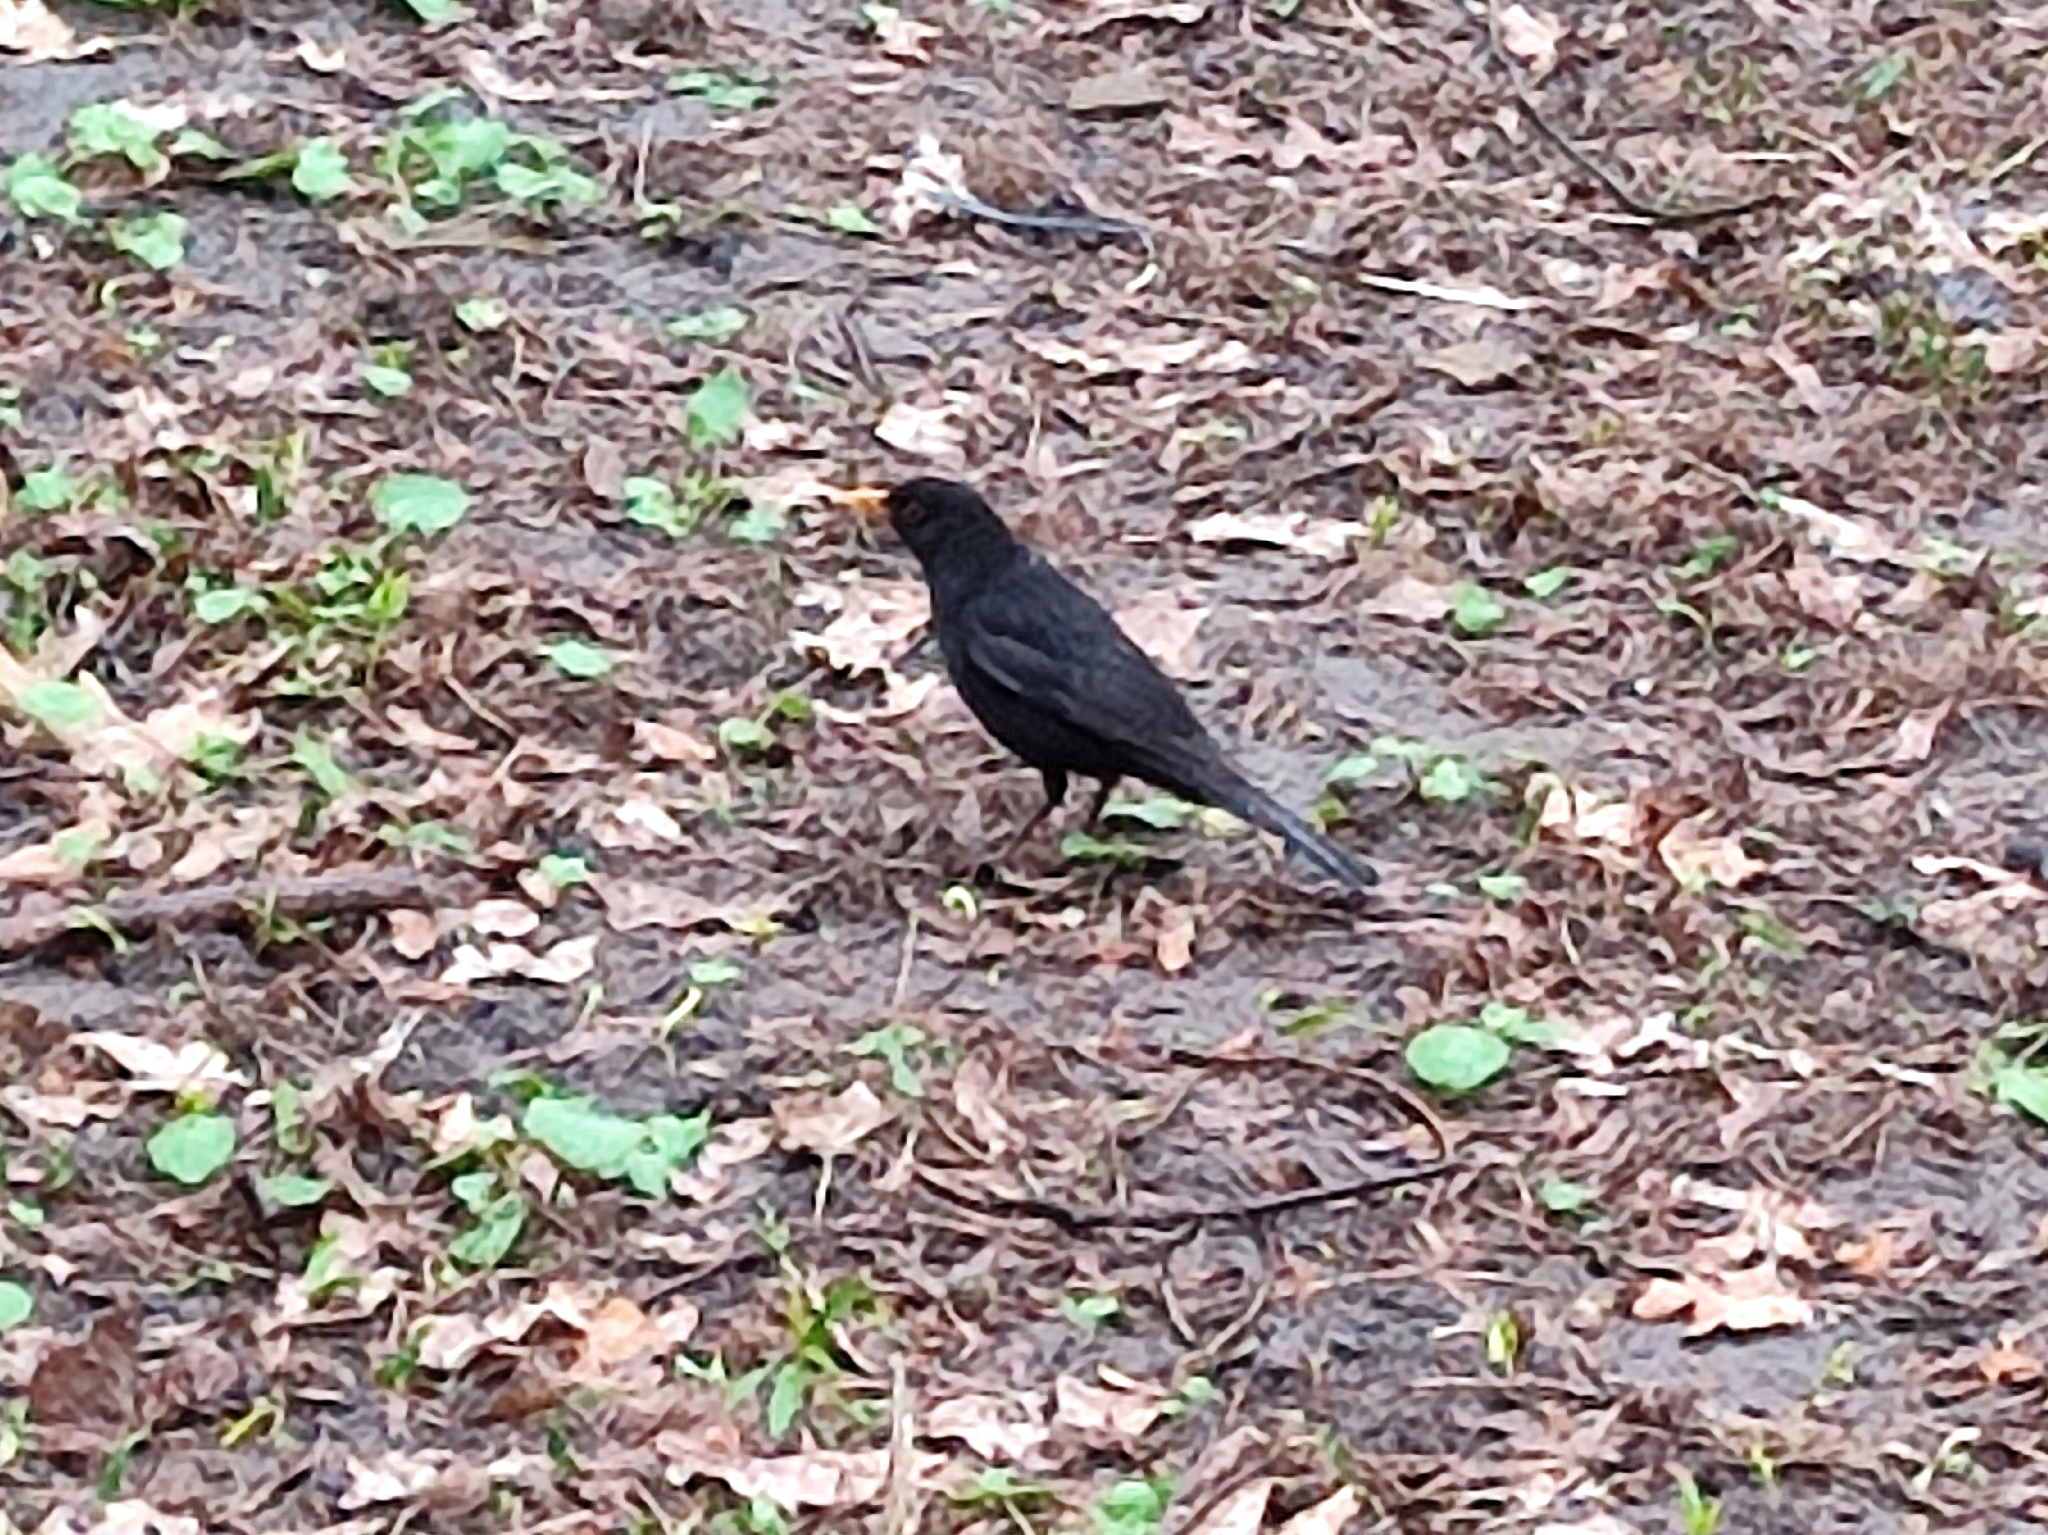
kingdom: Animalia
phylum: Chordata
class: Aves
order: Passeriformes
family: Turdidae
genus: Turdus
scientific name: Turdus merula
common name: Common blackbird
